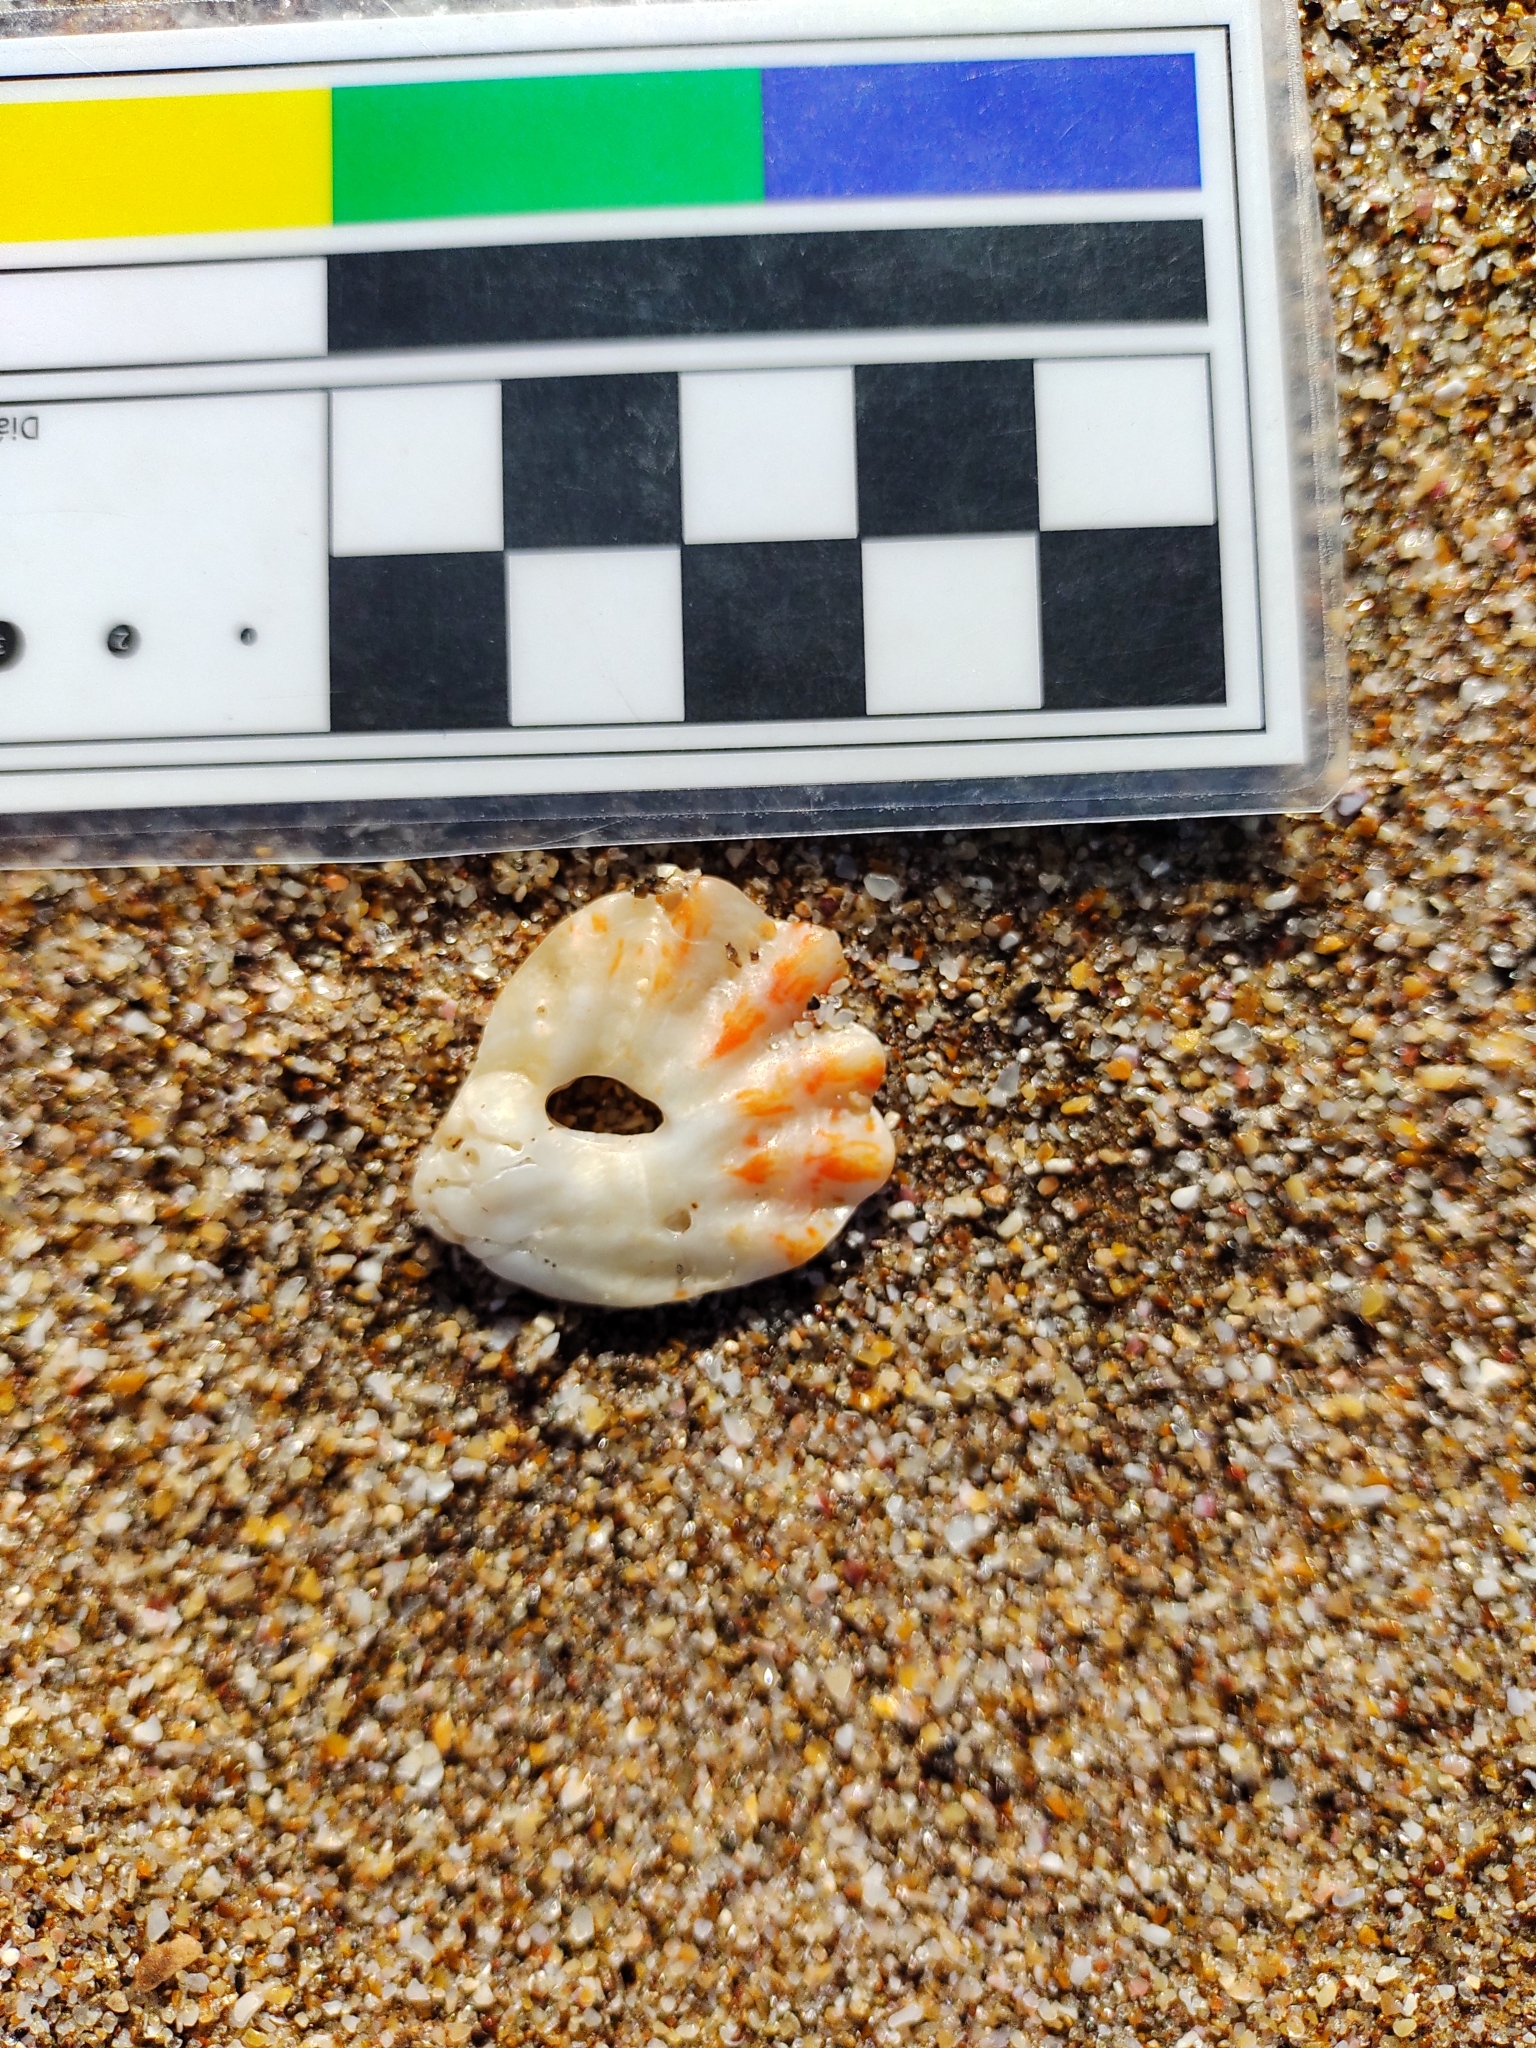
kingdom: Animalia
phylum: Mollusca
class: Bivalvia
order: Pectinida
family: Plicatulidae
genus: Plicatula
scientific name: Plicatula gibbosa
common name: Atlantic kitten's paw
